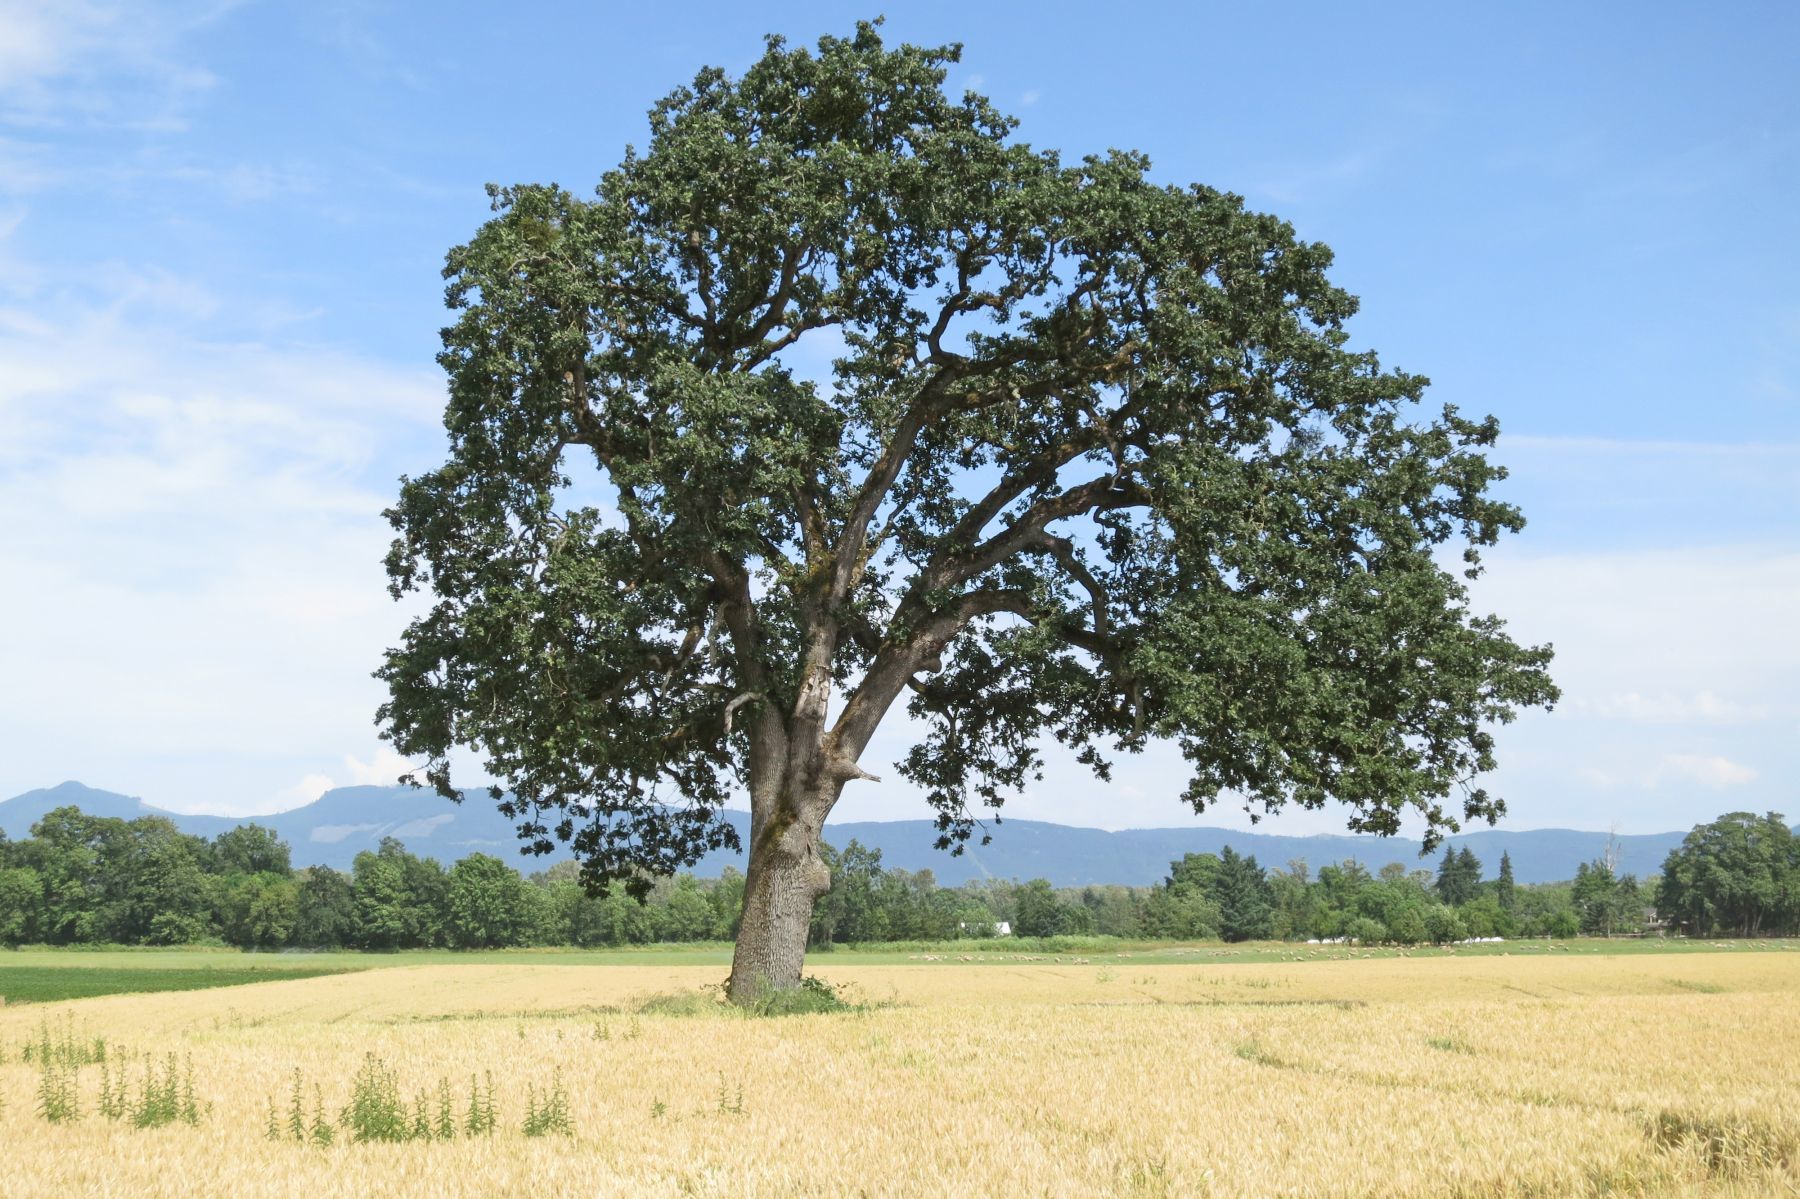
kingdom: Plantae
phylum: Tracheophyta
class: Magnoliopsida
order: Fagales
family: Fagaceae
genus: Quercus
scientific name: Quercus garryana
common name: Garry oak
